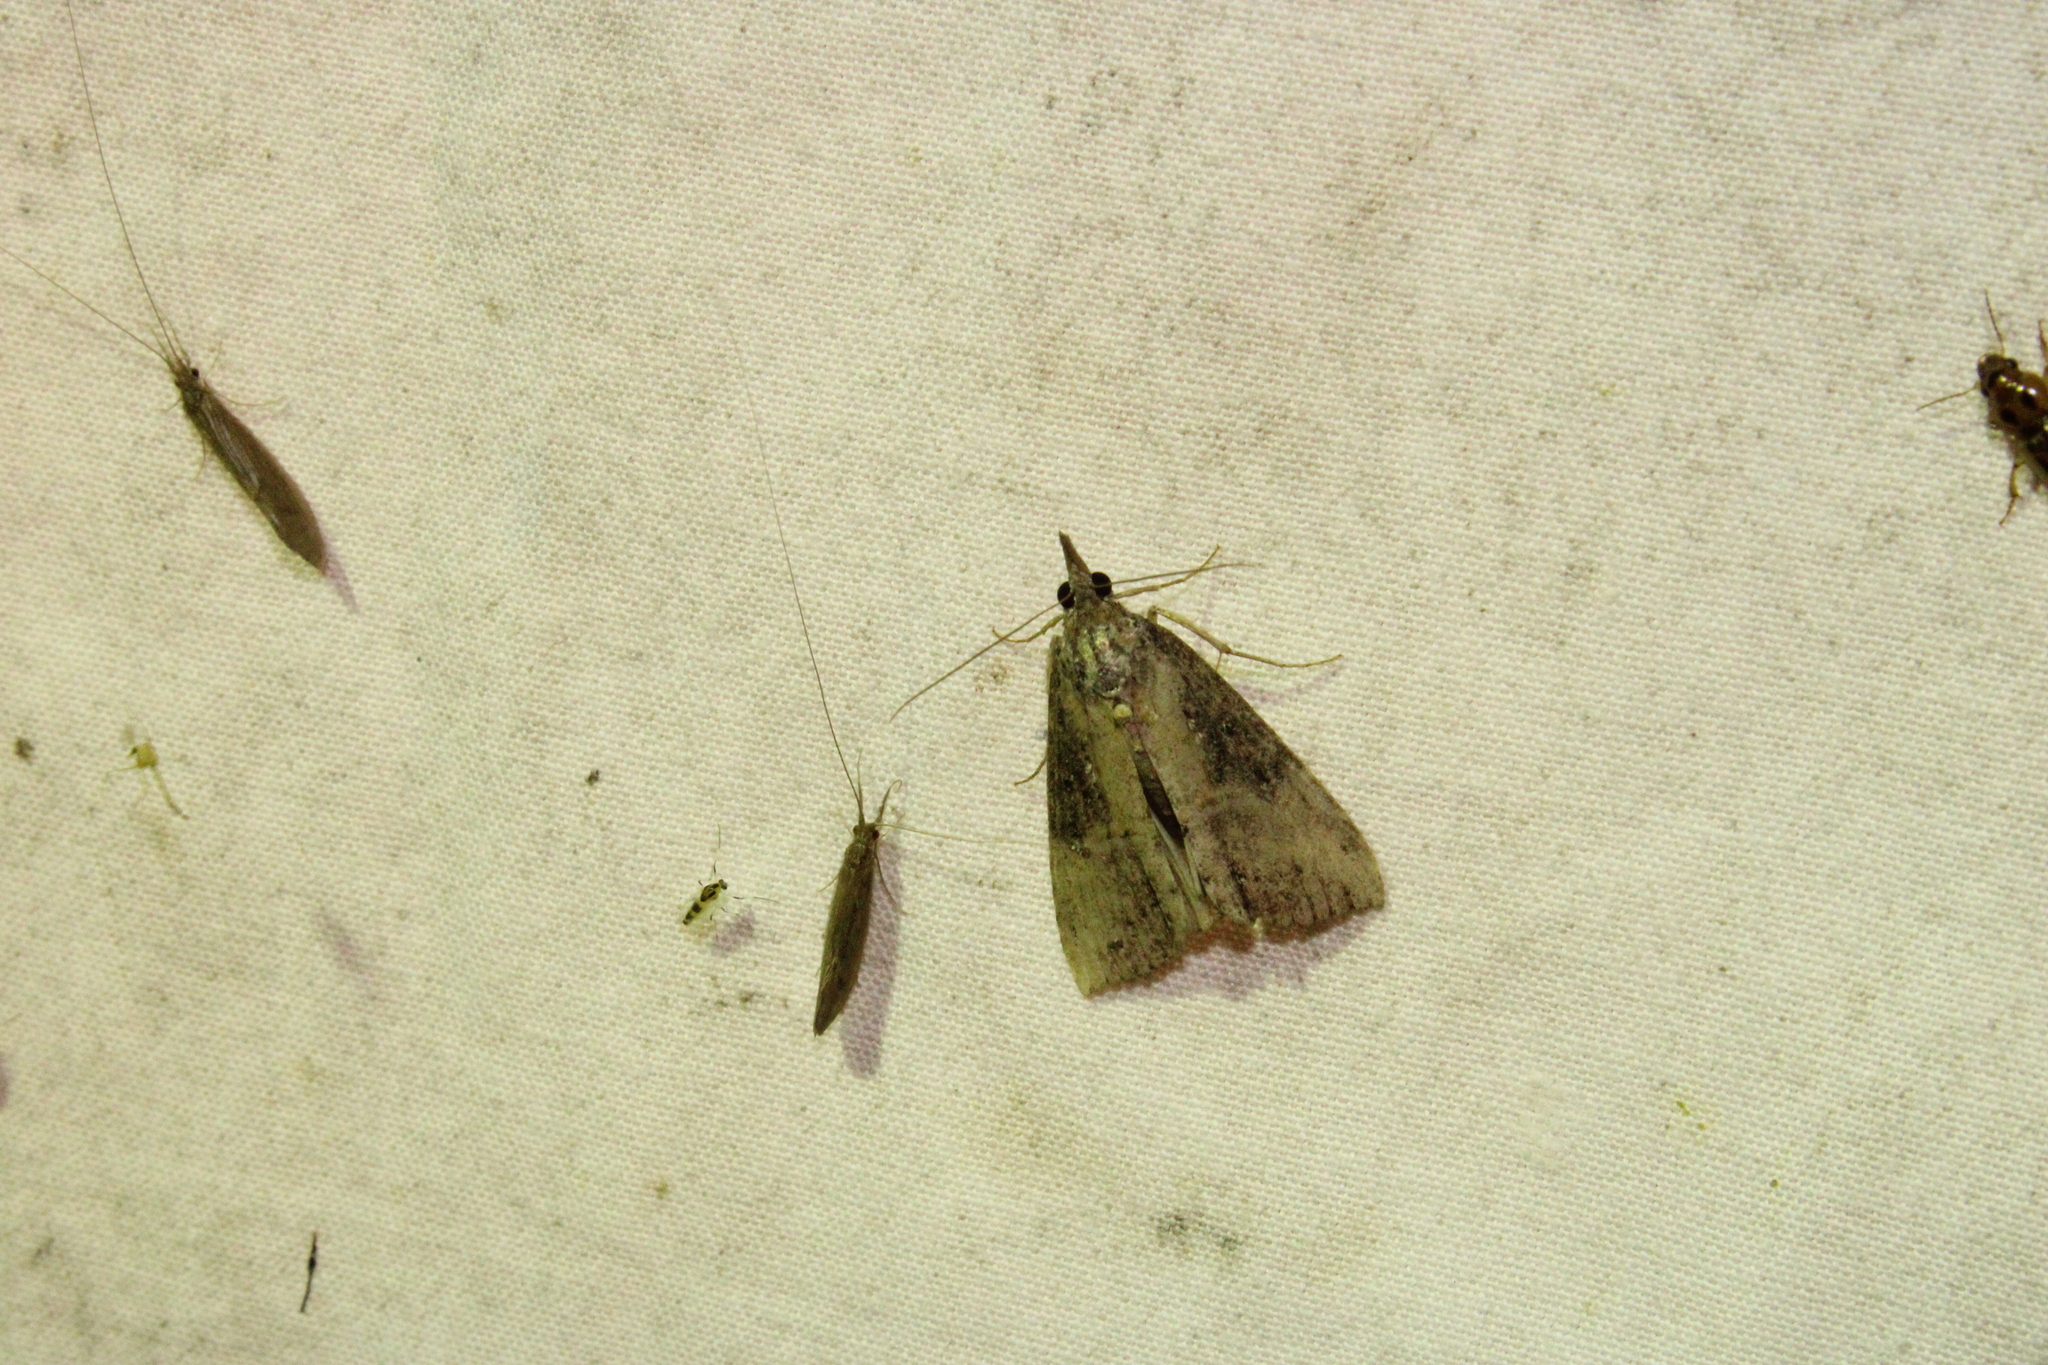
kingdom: Animalia
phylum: Arthropoda
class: Insecta
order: Lepidoptera
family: Erebidae
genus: Hypena
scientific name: Hypena scabra
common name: Green cloverworm
